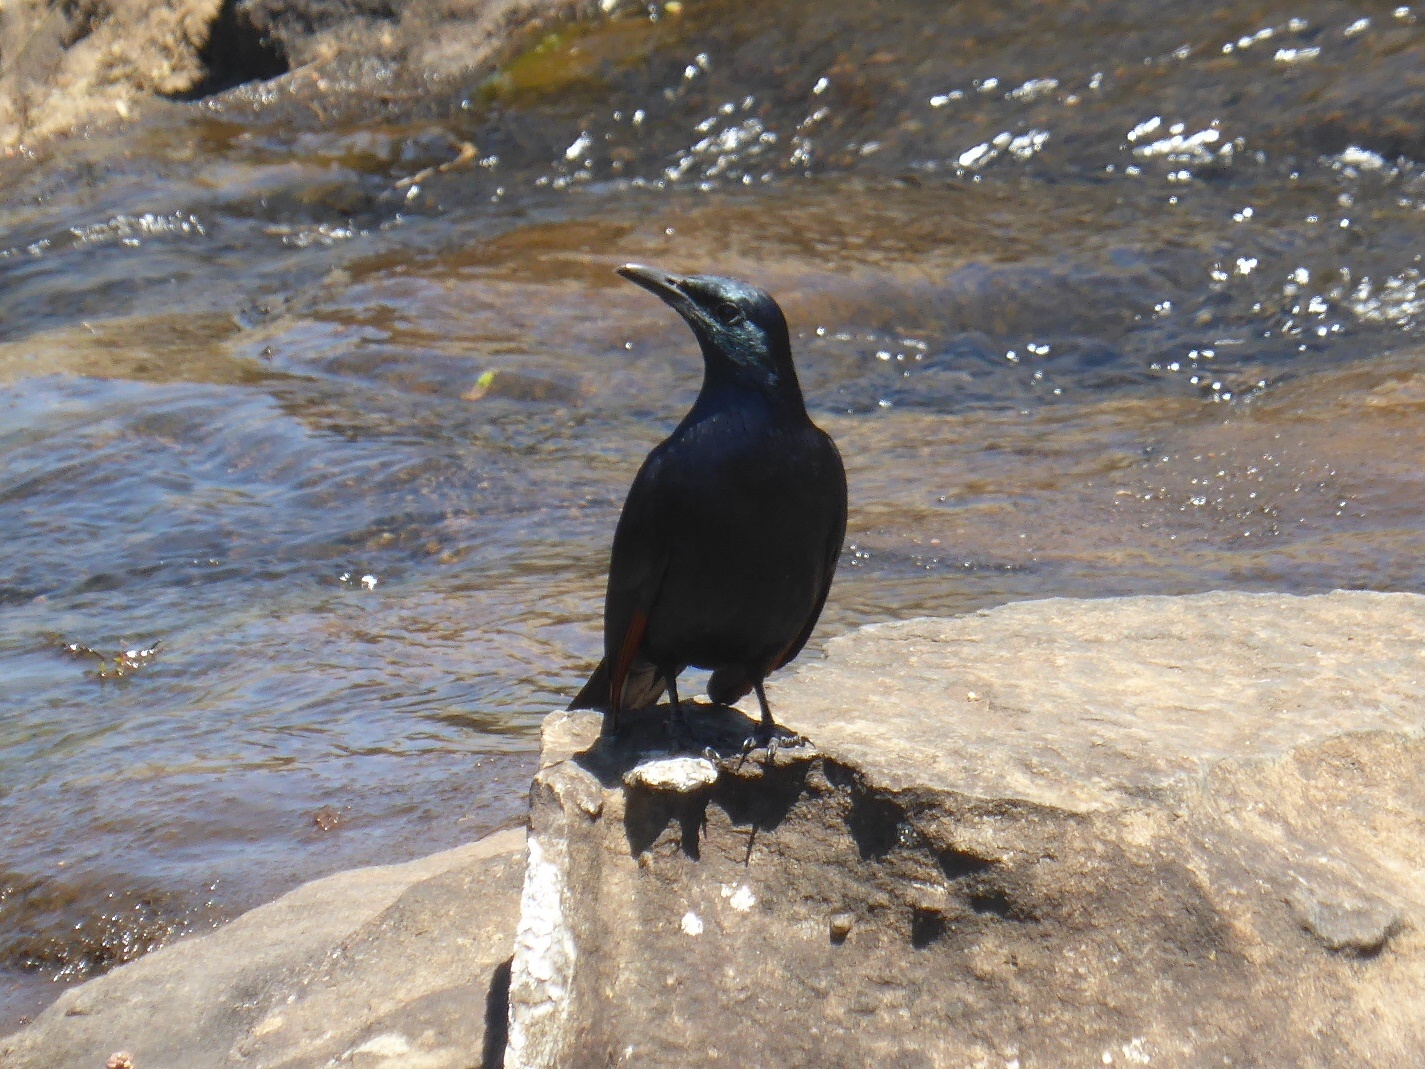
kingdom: Animalia
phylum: Chordata
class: Aves
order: Passeriformes
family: Sturnidae
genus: Onychognathus
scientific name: Onychognathus morio
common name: Red-winged starling
